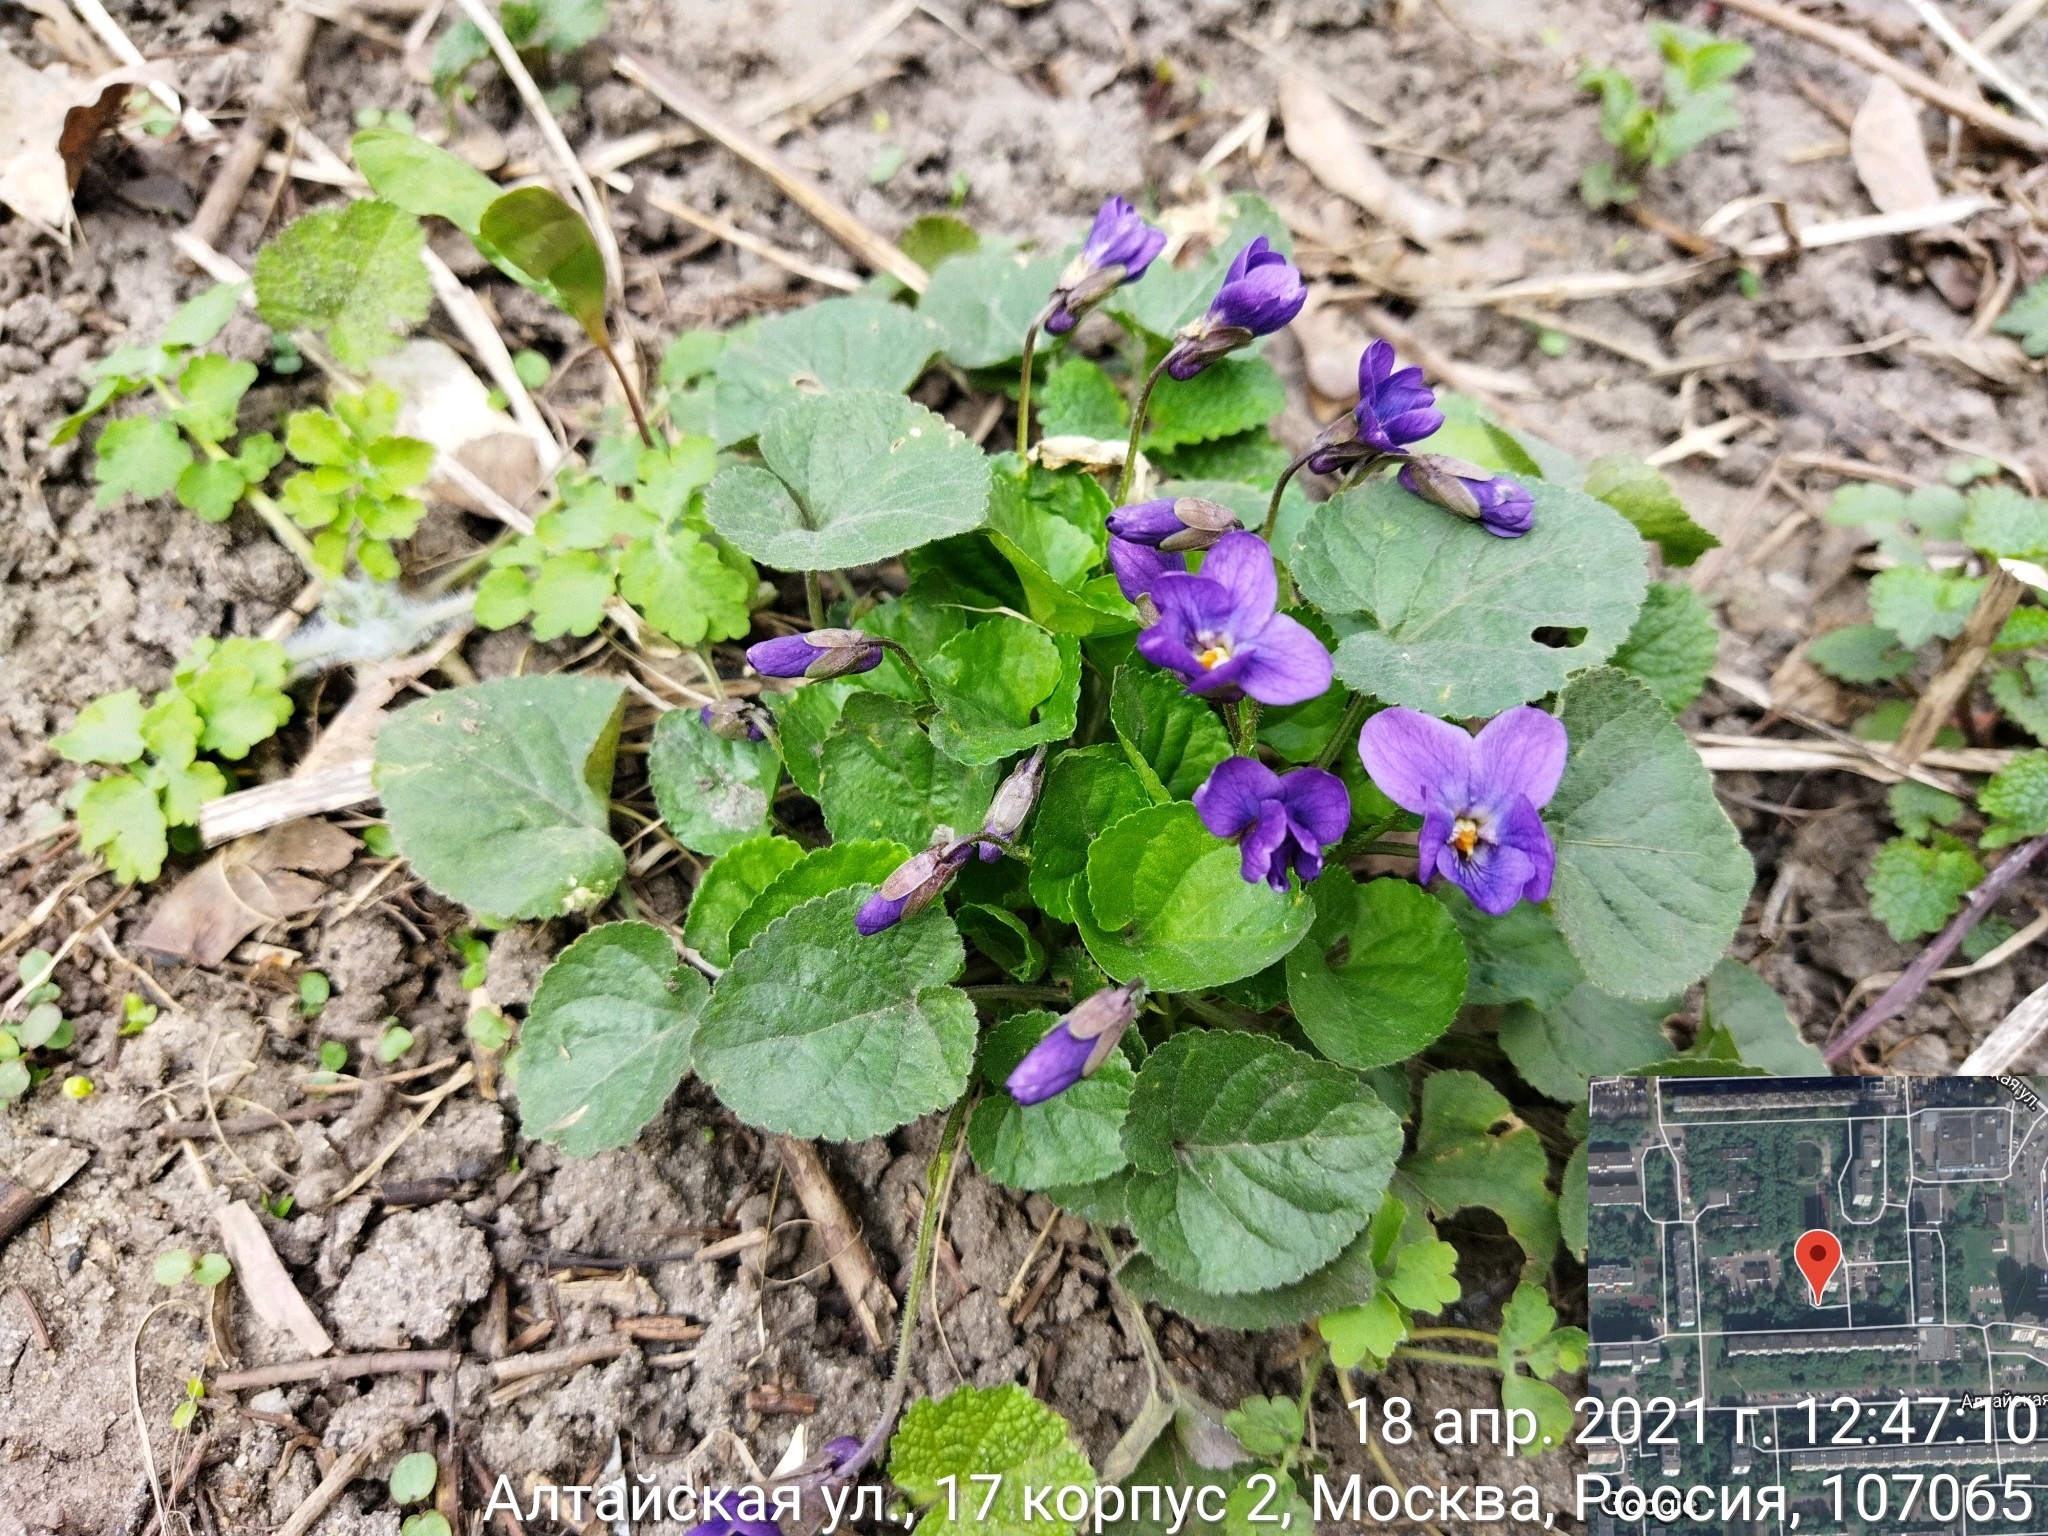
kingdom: Plantae
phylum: Tracheophyta
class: Magnoliopsida
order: Malpighiales
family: Violaceae
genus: Viola
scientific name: Viola odorata
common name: Sweet violet
